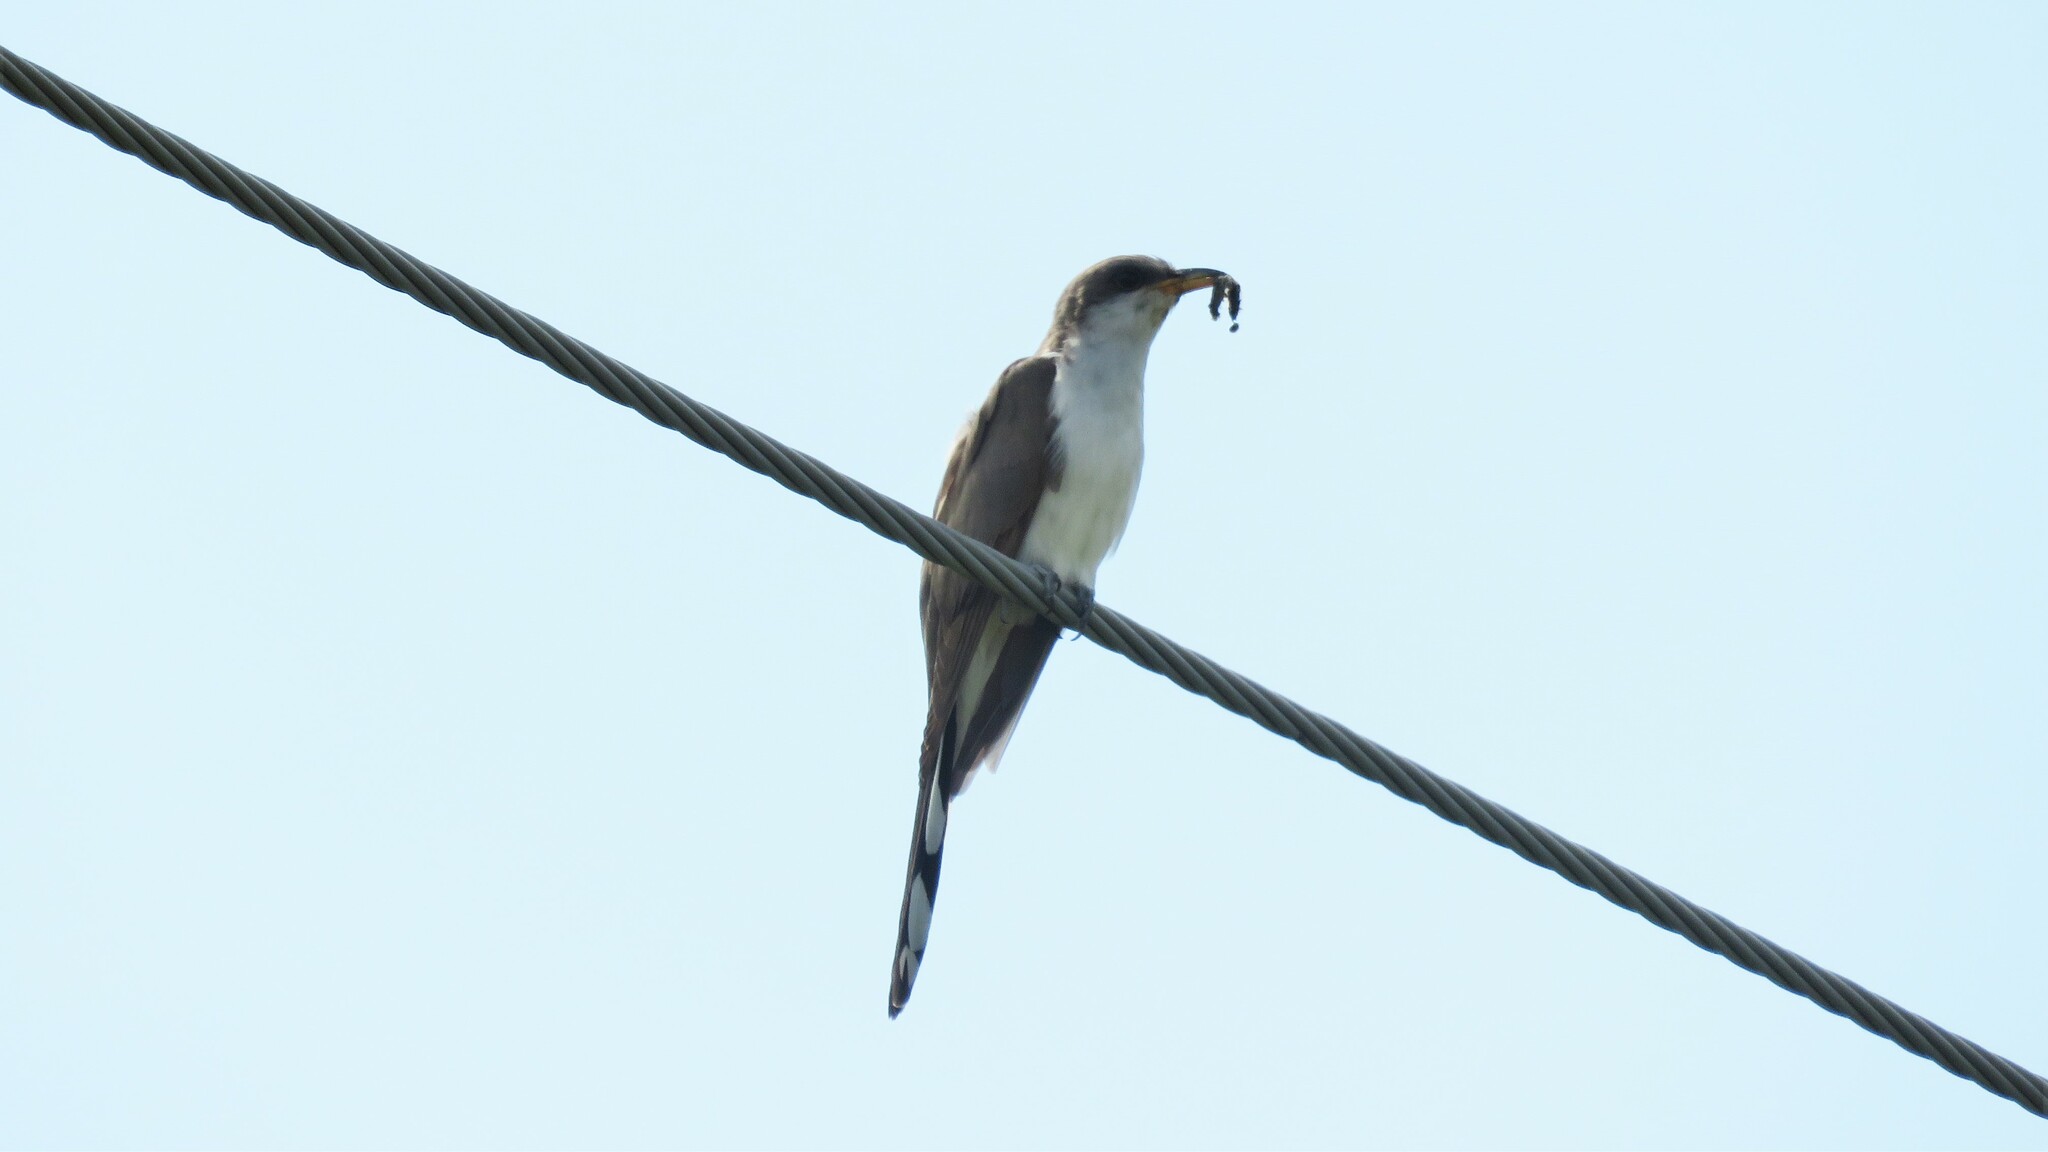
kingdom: Animalia
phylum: Chordata
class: Aves
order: Cuculiformes
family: Cuculidae
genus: Coccyzus
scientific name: Coccyzus americanus
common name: Yellow-billed cuckoo
